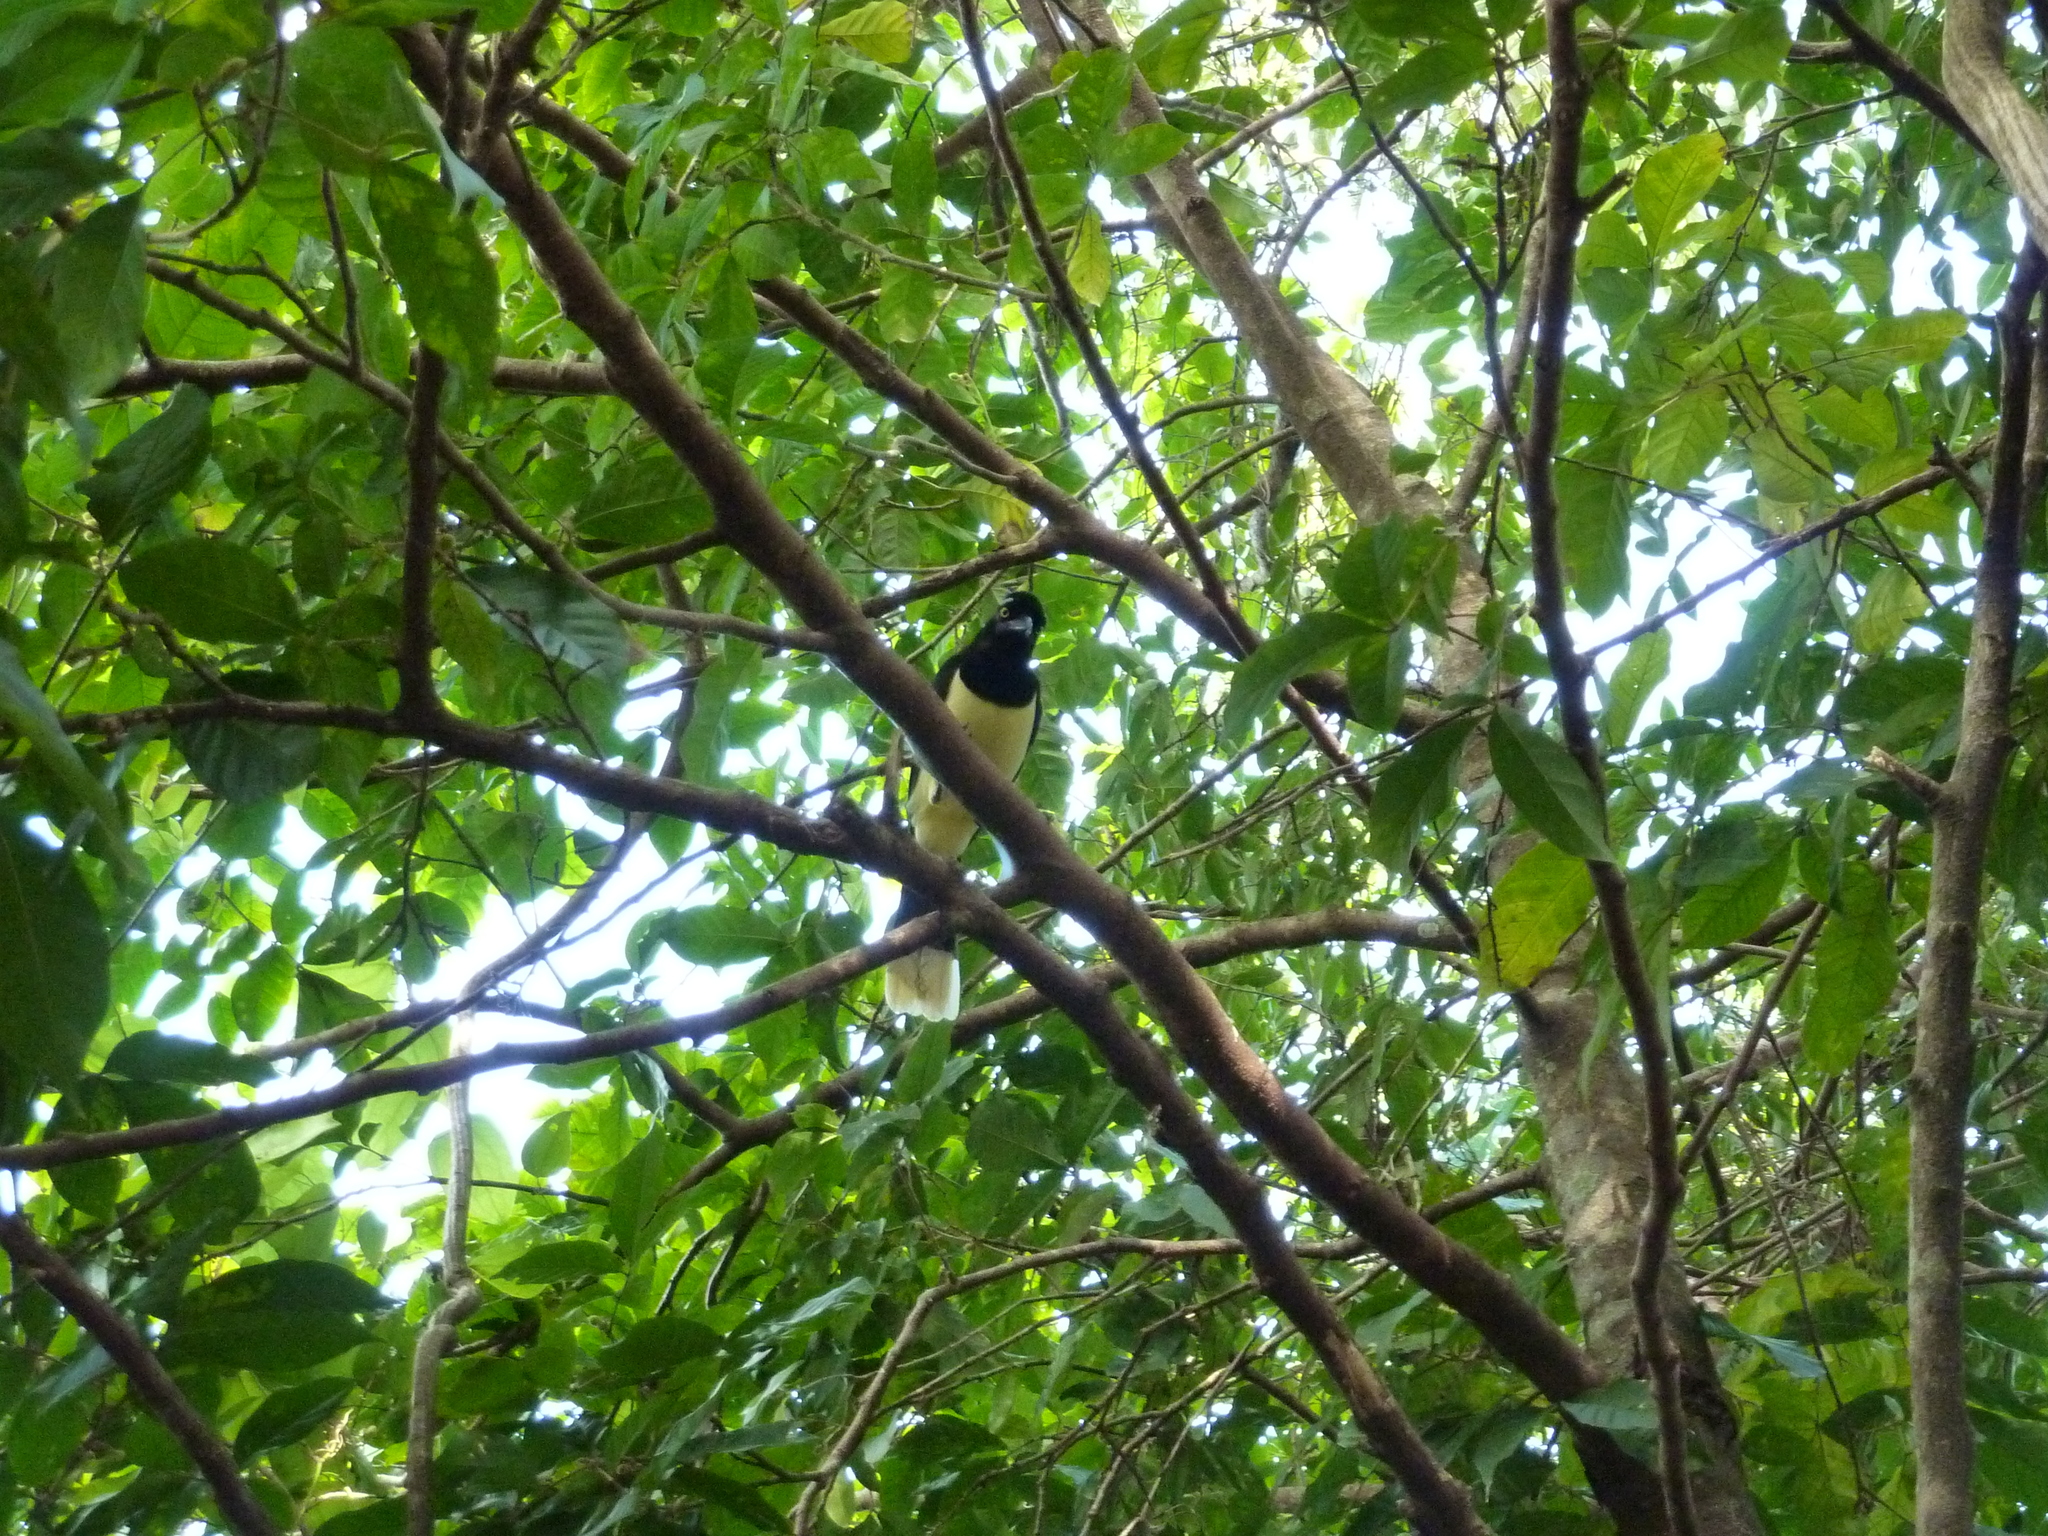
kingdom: Animalia
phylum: Chordata
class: Aves
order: Passeriformes
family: Corvidae
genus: Cyanocorax
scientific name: Cyanocorax chrysops
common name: Plush-crested jay
